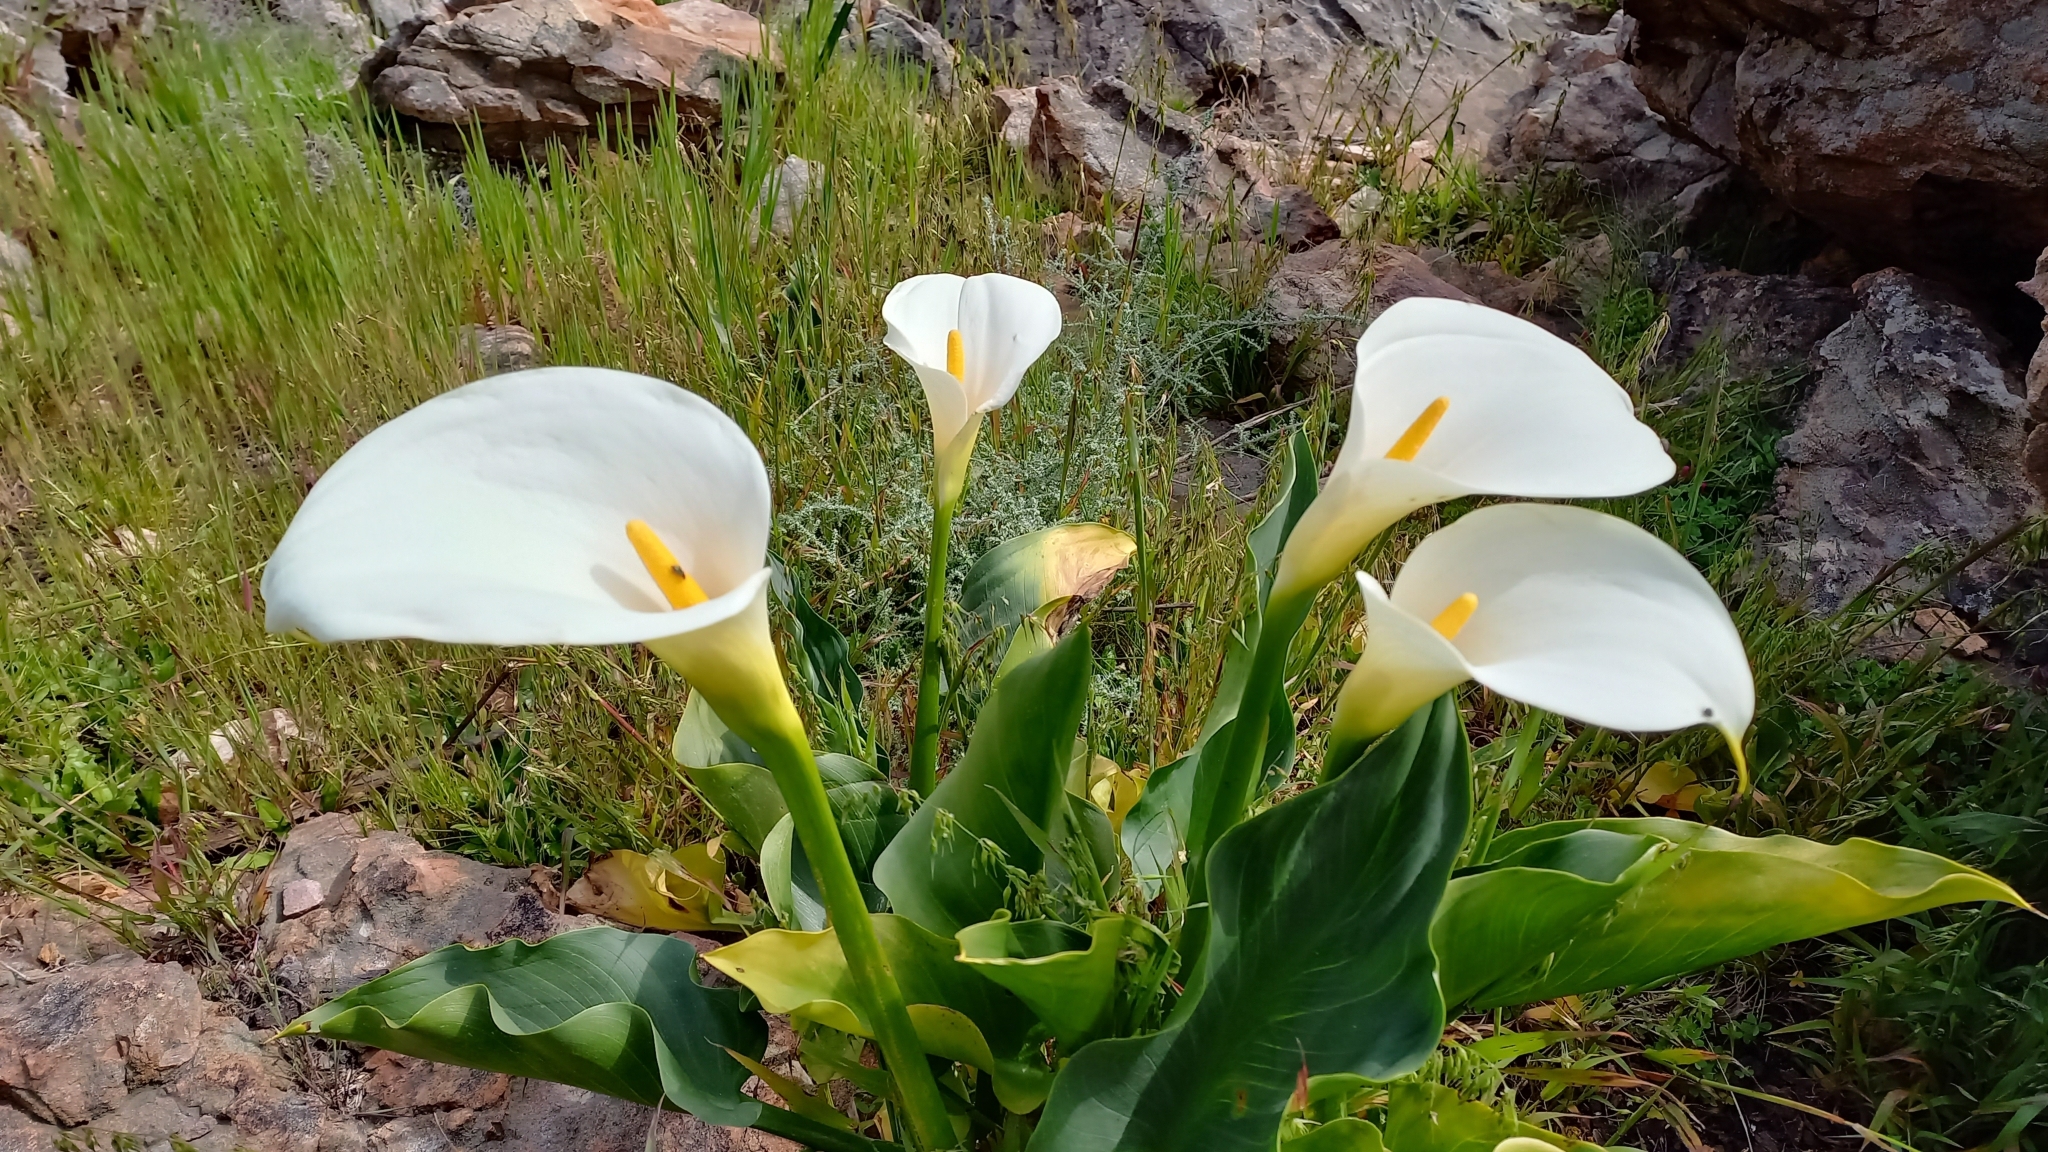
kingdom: Plantae
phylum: Tracheophyta
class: Liliopsida
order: Alismatales
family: Araceae
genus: Zantedeschia
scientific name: Zantedeschia aethiopica
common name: Altar-lily
